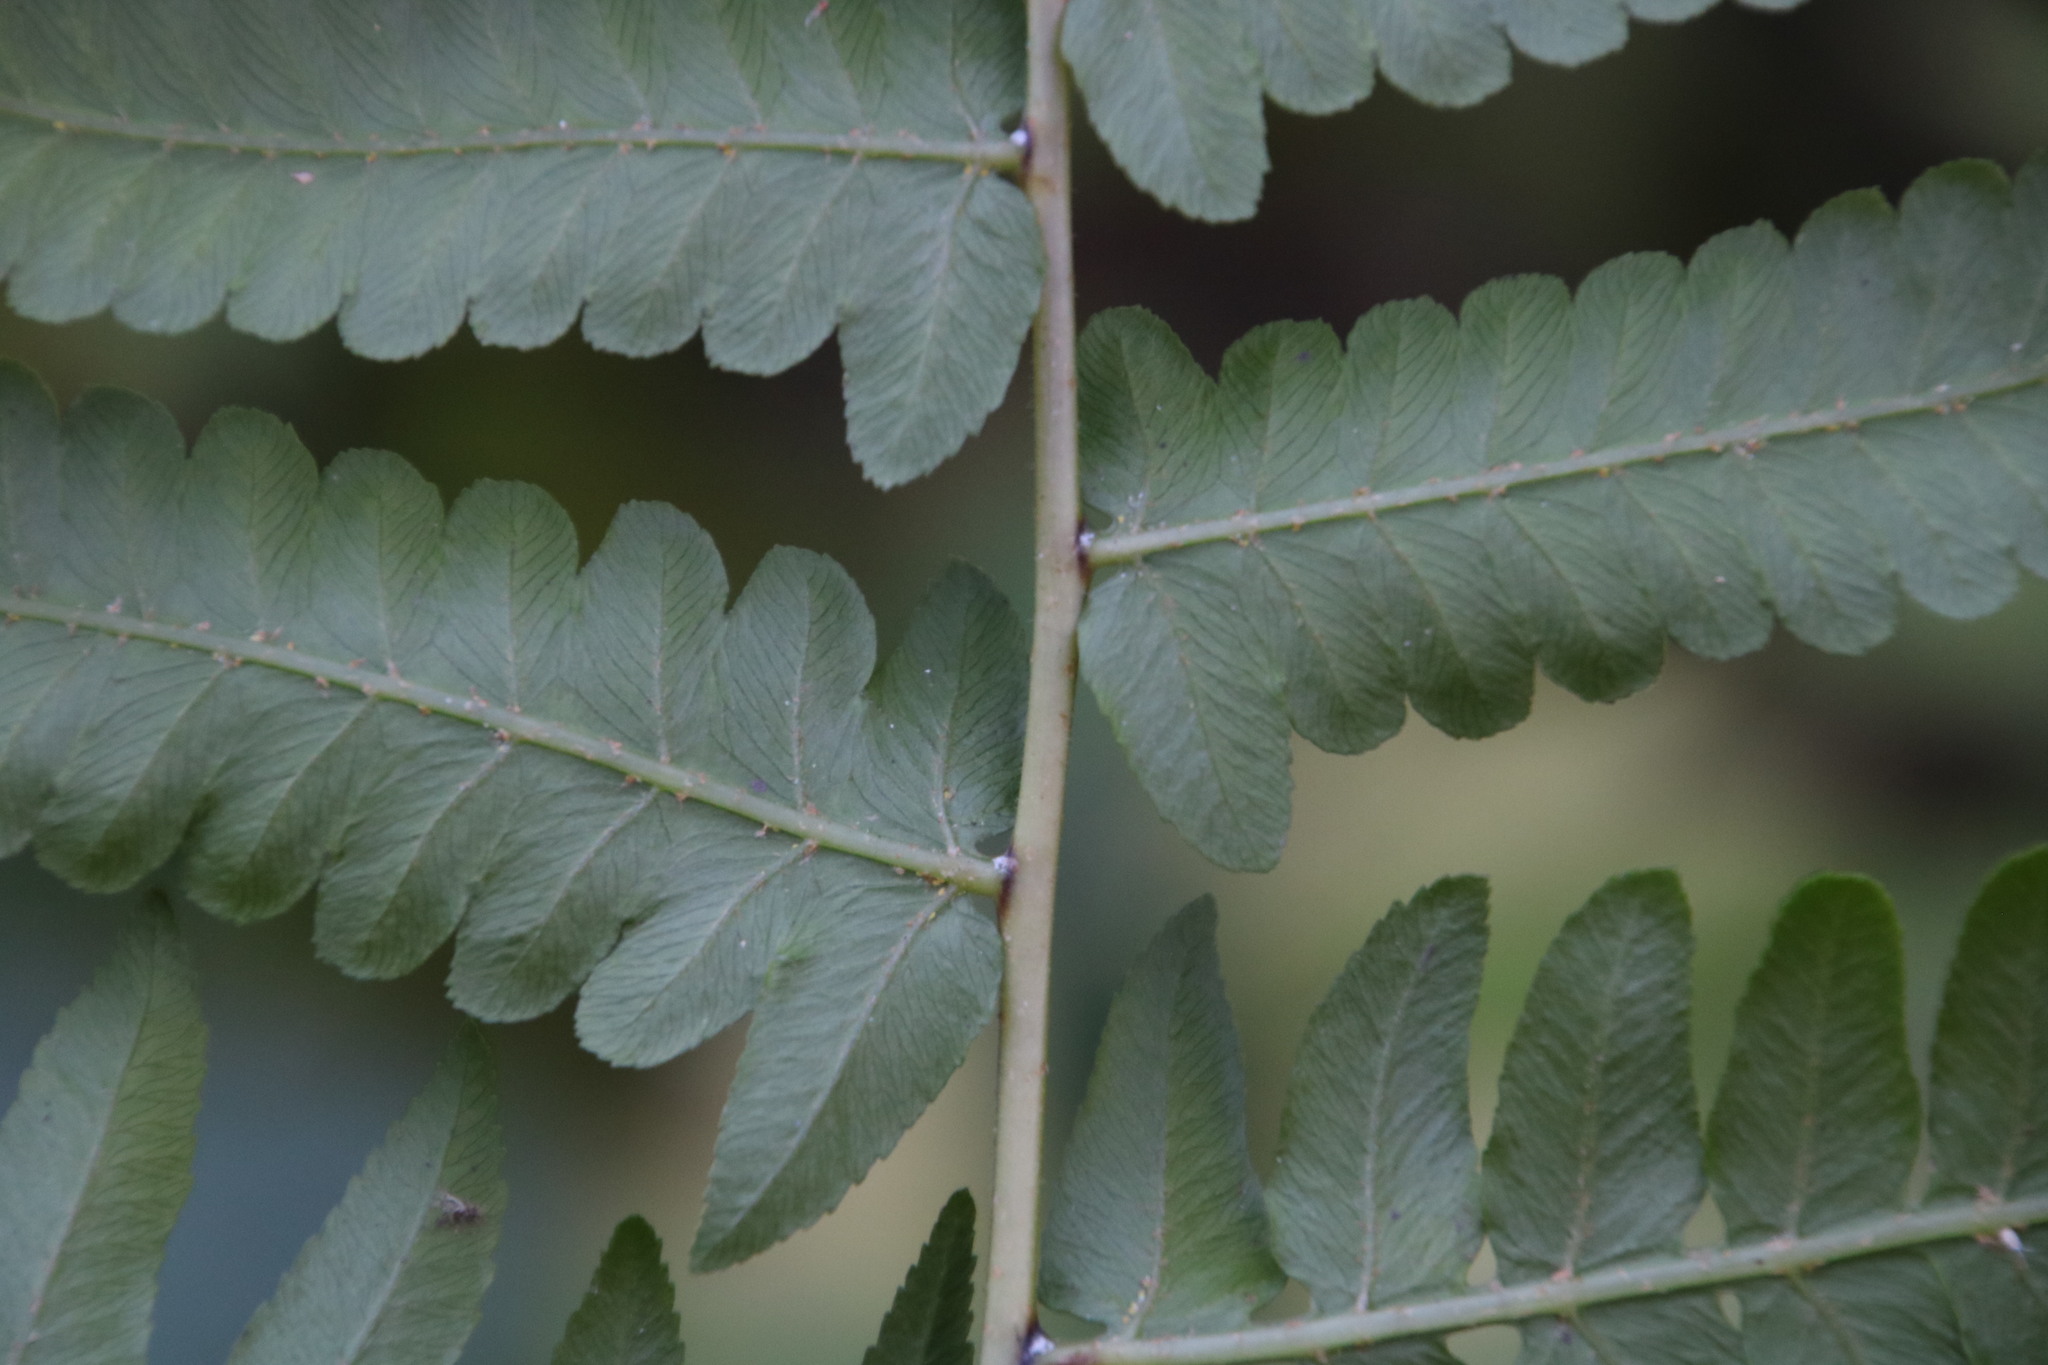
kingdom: Plantae
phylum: Tracheophyta
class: Polypodiopsida
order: Polypodiales
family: Athyriaceae
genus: Diplazium
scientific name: Diplazium esculentum
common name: Vegetable fern
